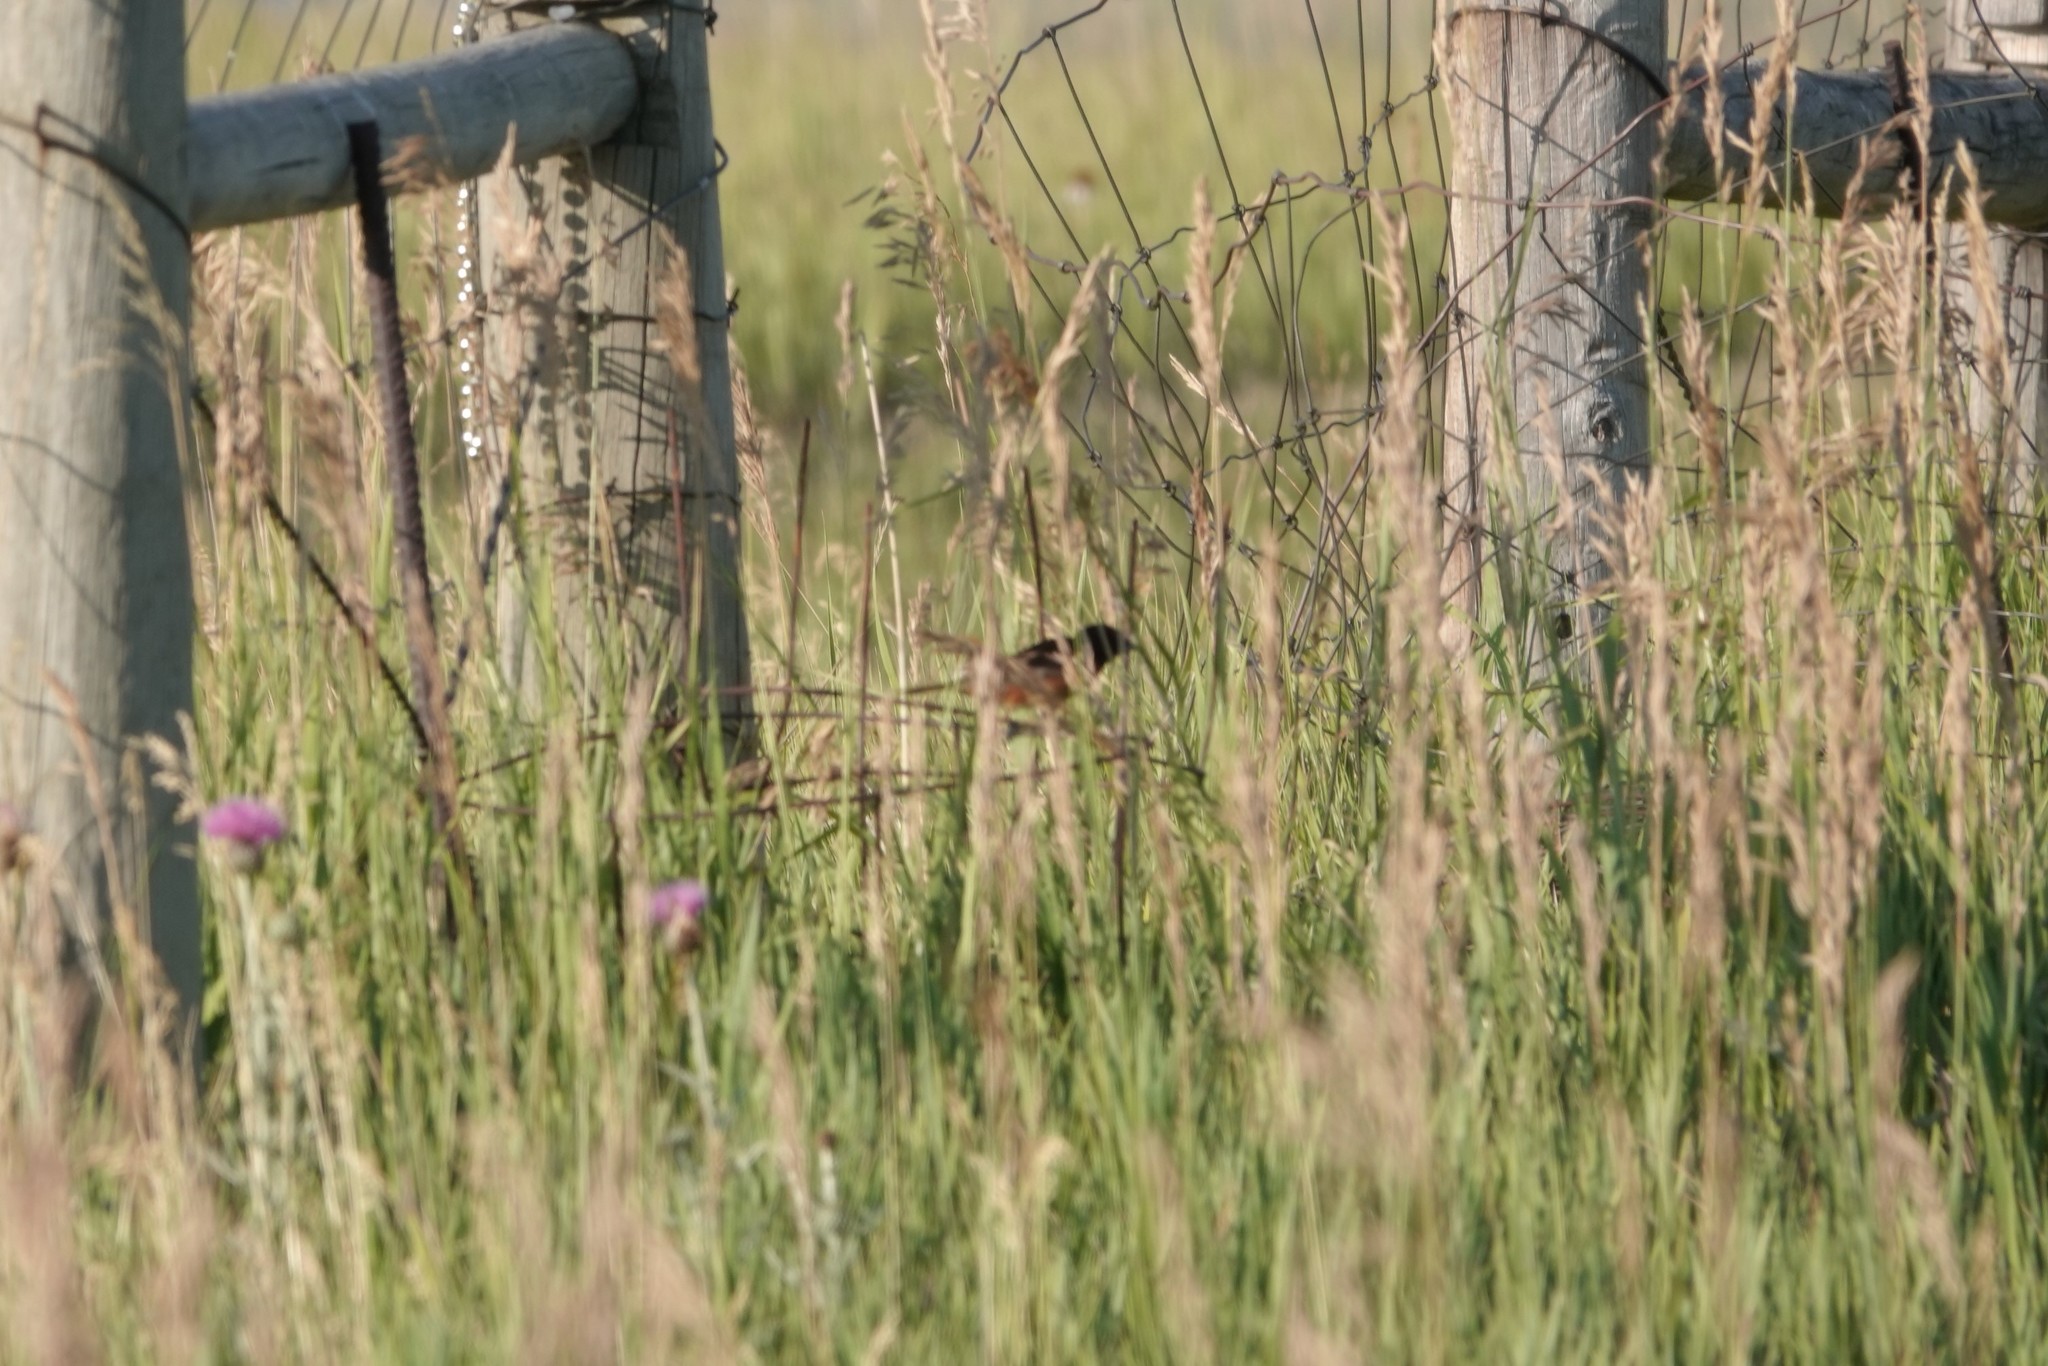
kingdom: Animalia
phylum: Chordata
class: Aves
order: Passeriformes
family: Icteridae
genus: Icterus
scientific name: Icterus spurius
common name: Orchard oriole
